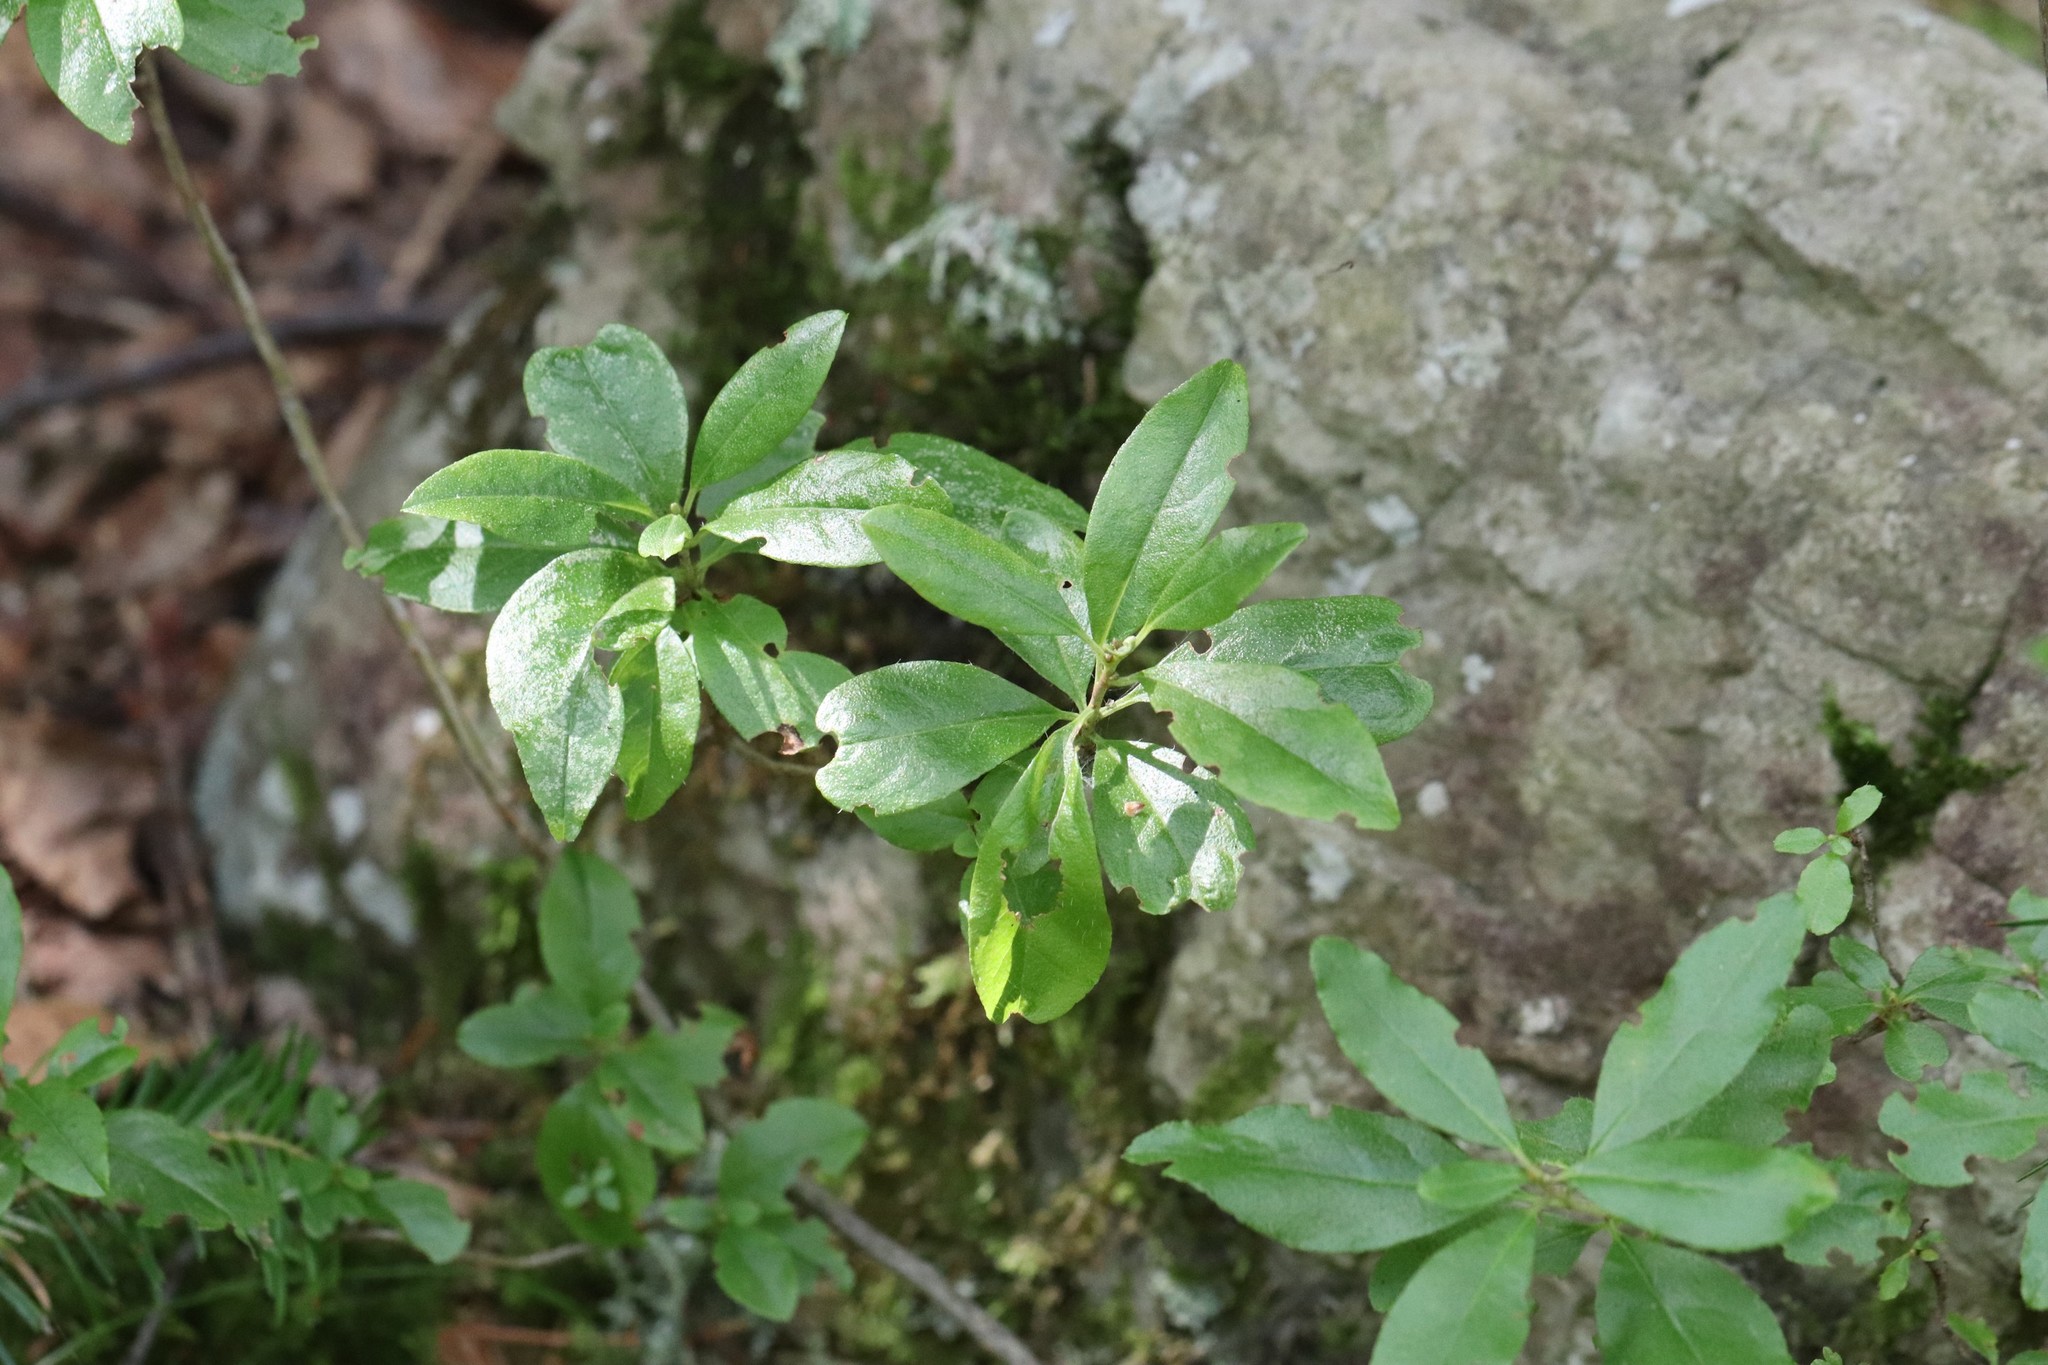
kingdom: Plantae
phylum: Tracheophyta
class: Magnoliopsida
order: Ericales
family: Ericaceae
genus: Rhododendron
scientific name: Rhododendron mucronulatum
